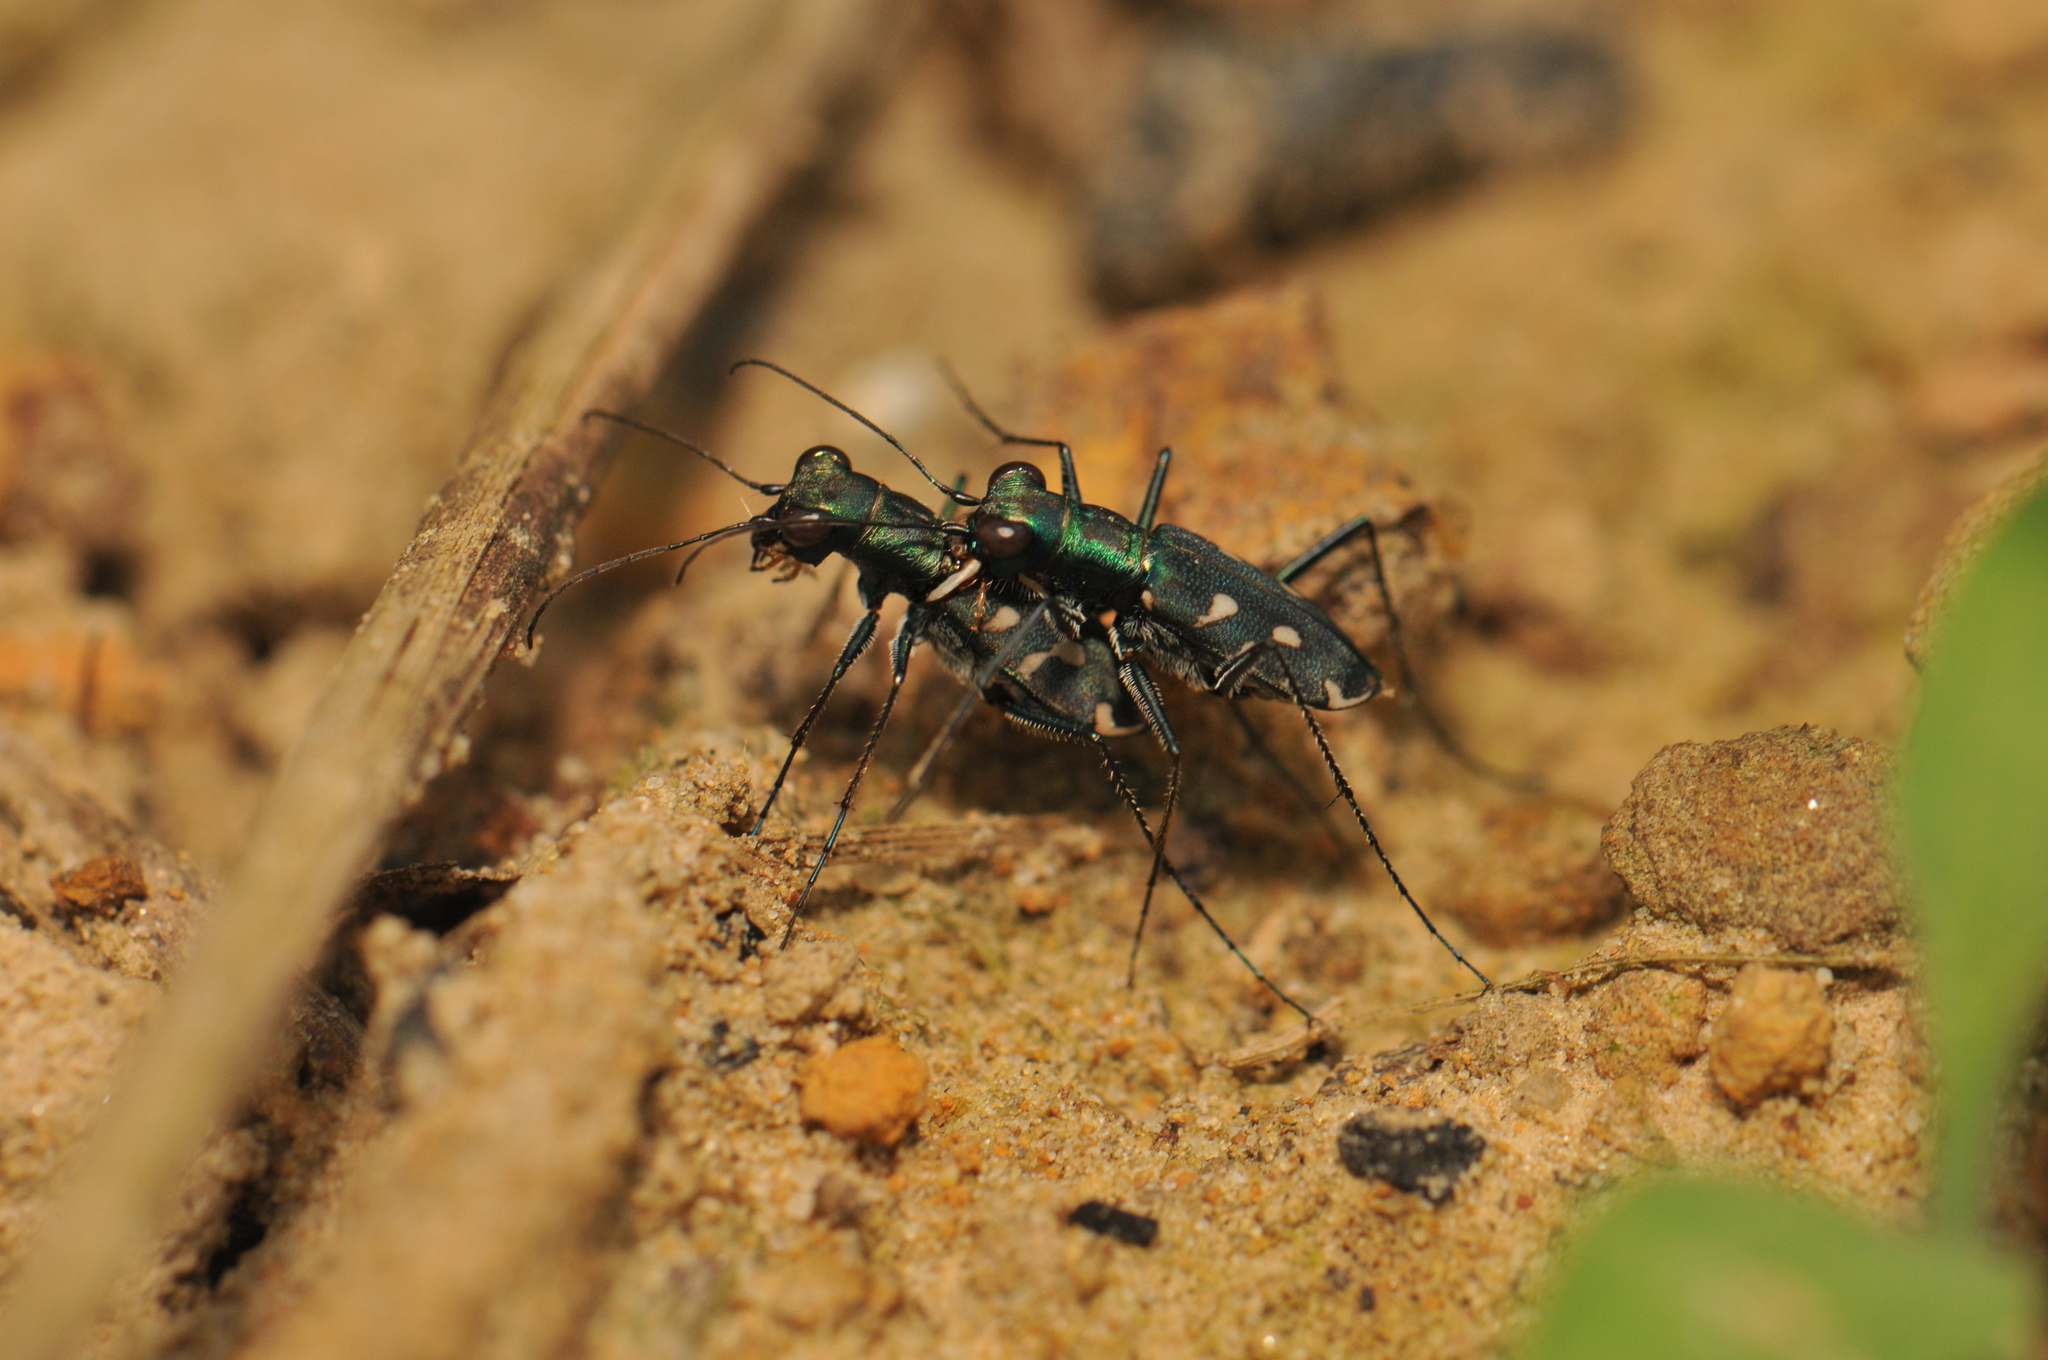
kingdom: Animalia
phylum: Arthropoda
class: Insecta
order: Coleoptera
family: Carabidae
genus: Cylindera
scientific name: Cylindera kaleea
